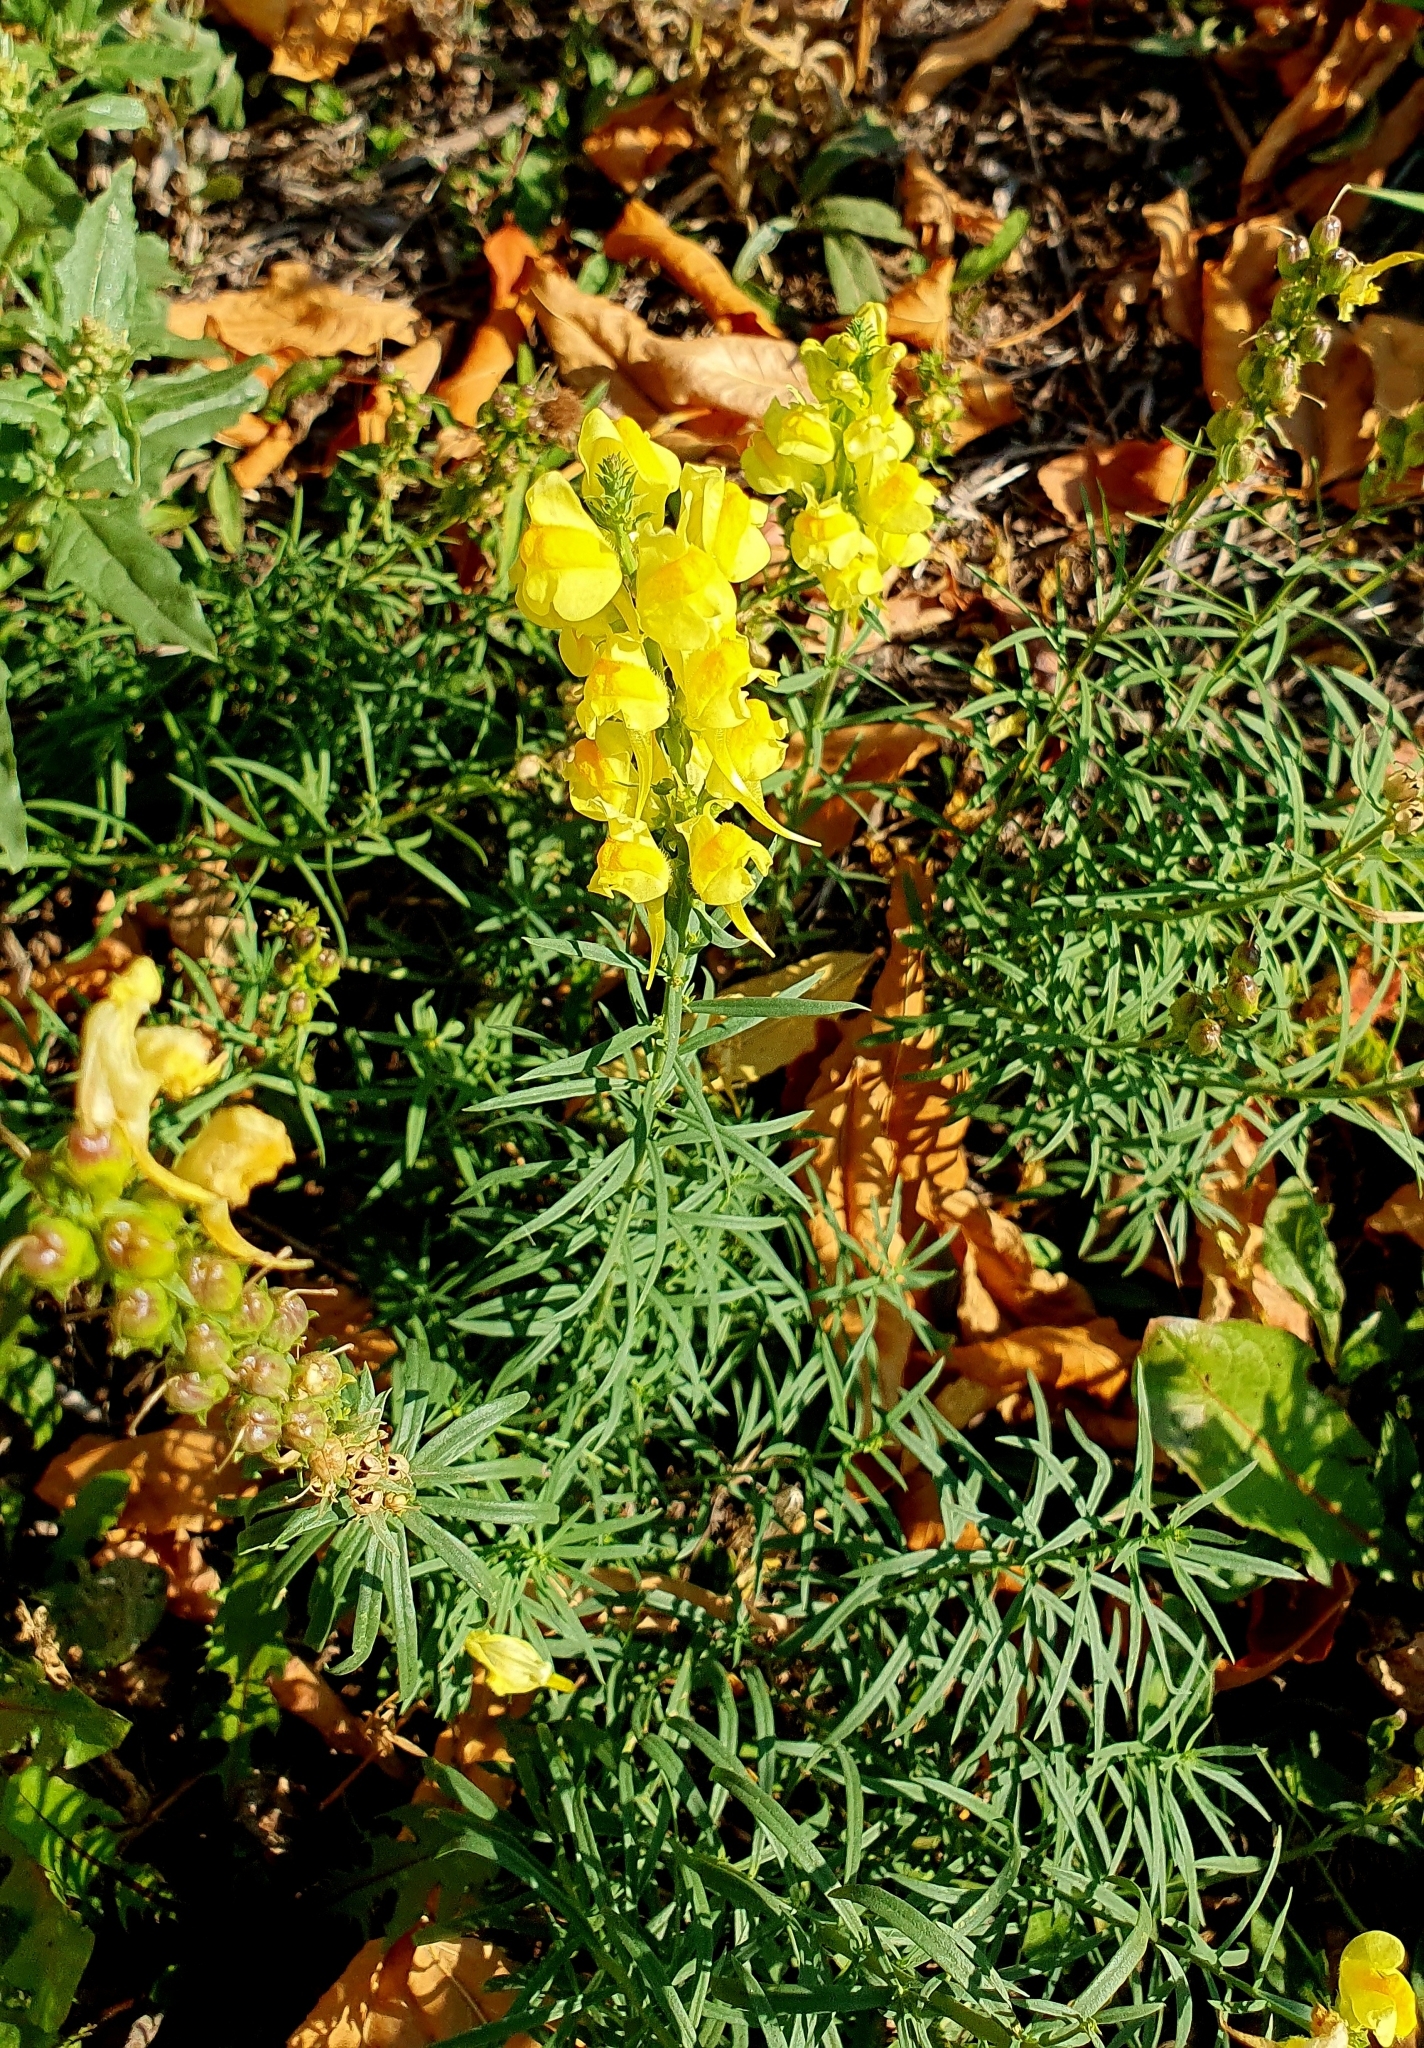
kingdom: Plantae
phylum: Tracheophyta
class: Magnoliopsida
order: Lamiales
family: Plantaginaceae
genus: Linaria
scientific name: Linaria vulgaris
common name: Butter and eggs
